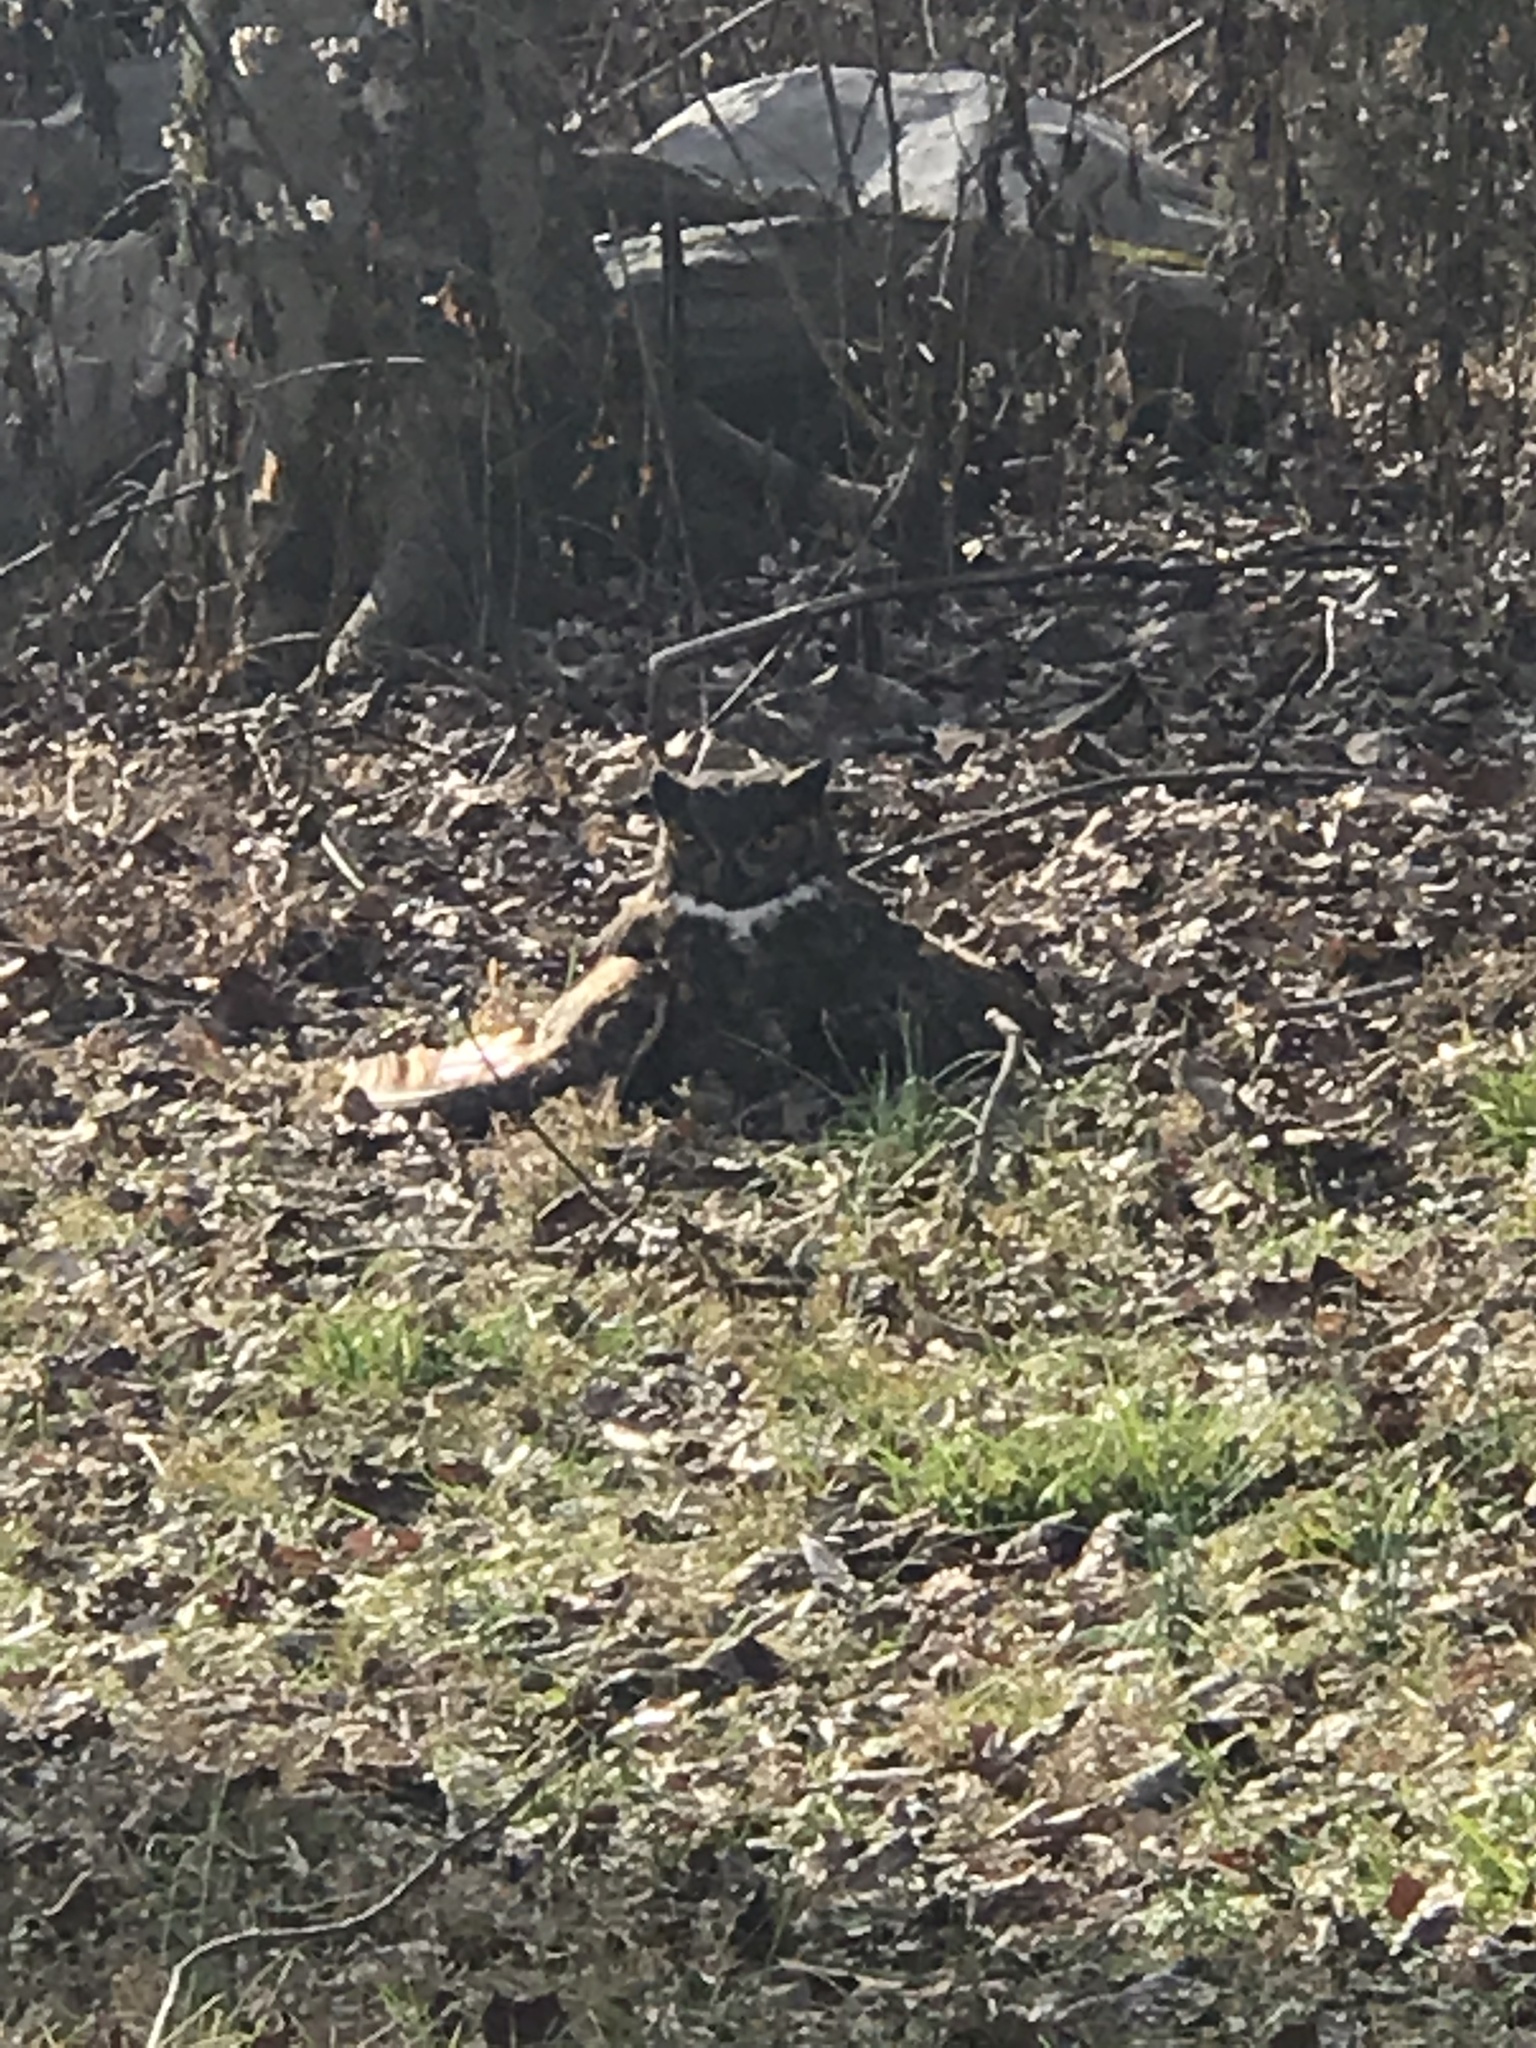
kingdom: Animalia
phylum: Chordata
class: Aves
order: Strigiformes
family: Strigidae
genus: Bubo
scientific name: Bubo virginianus
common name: Great horned owl
